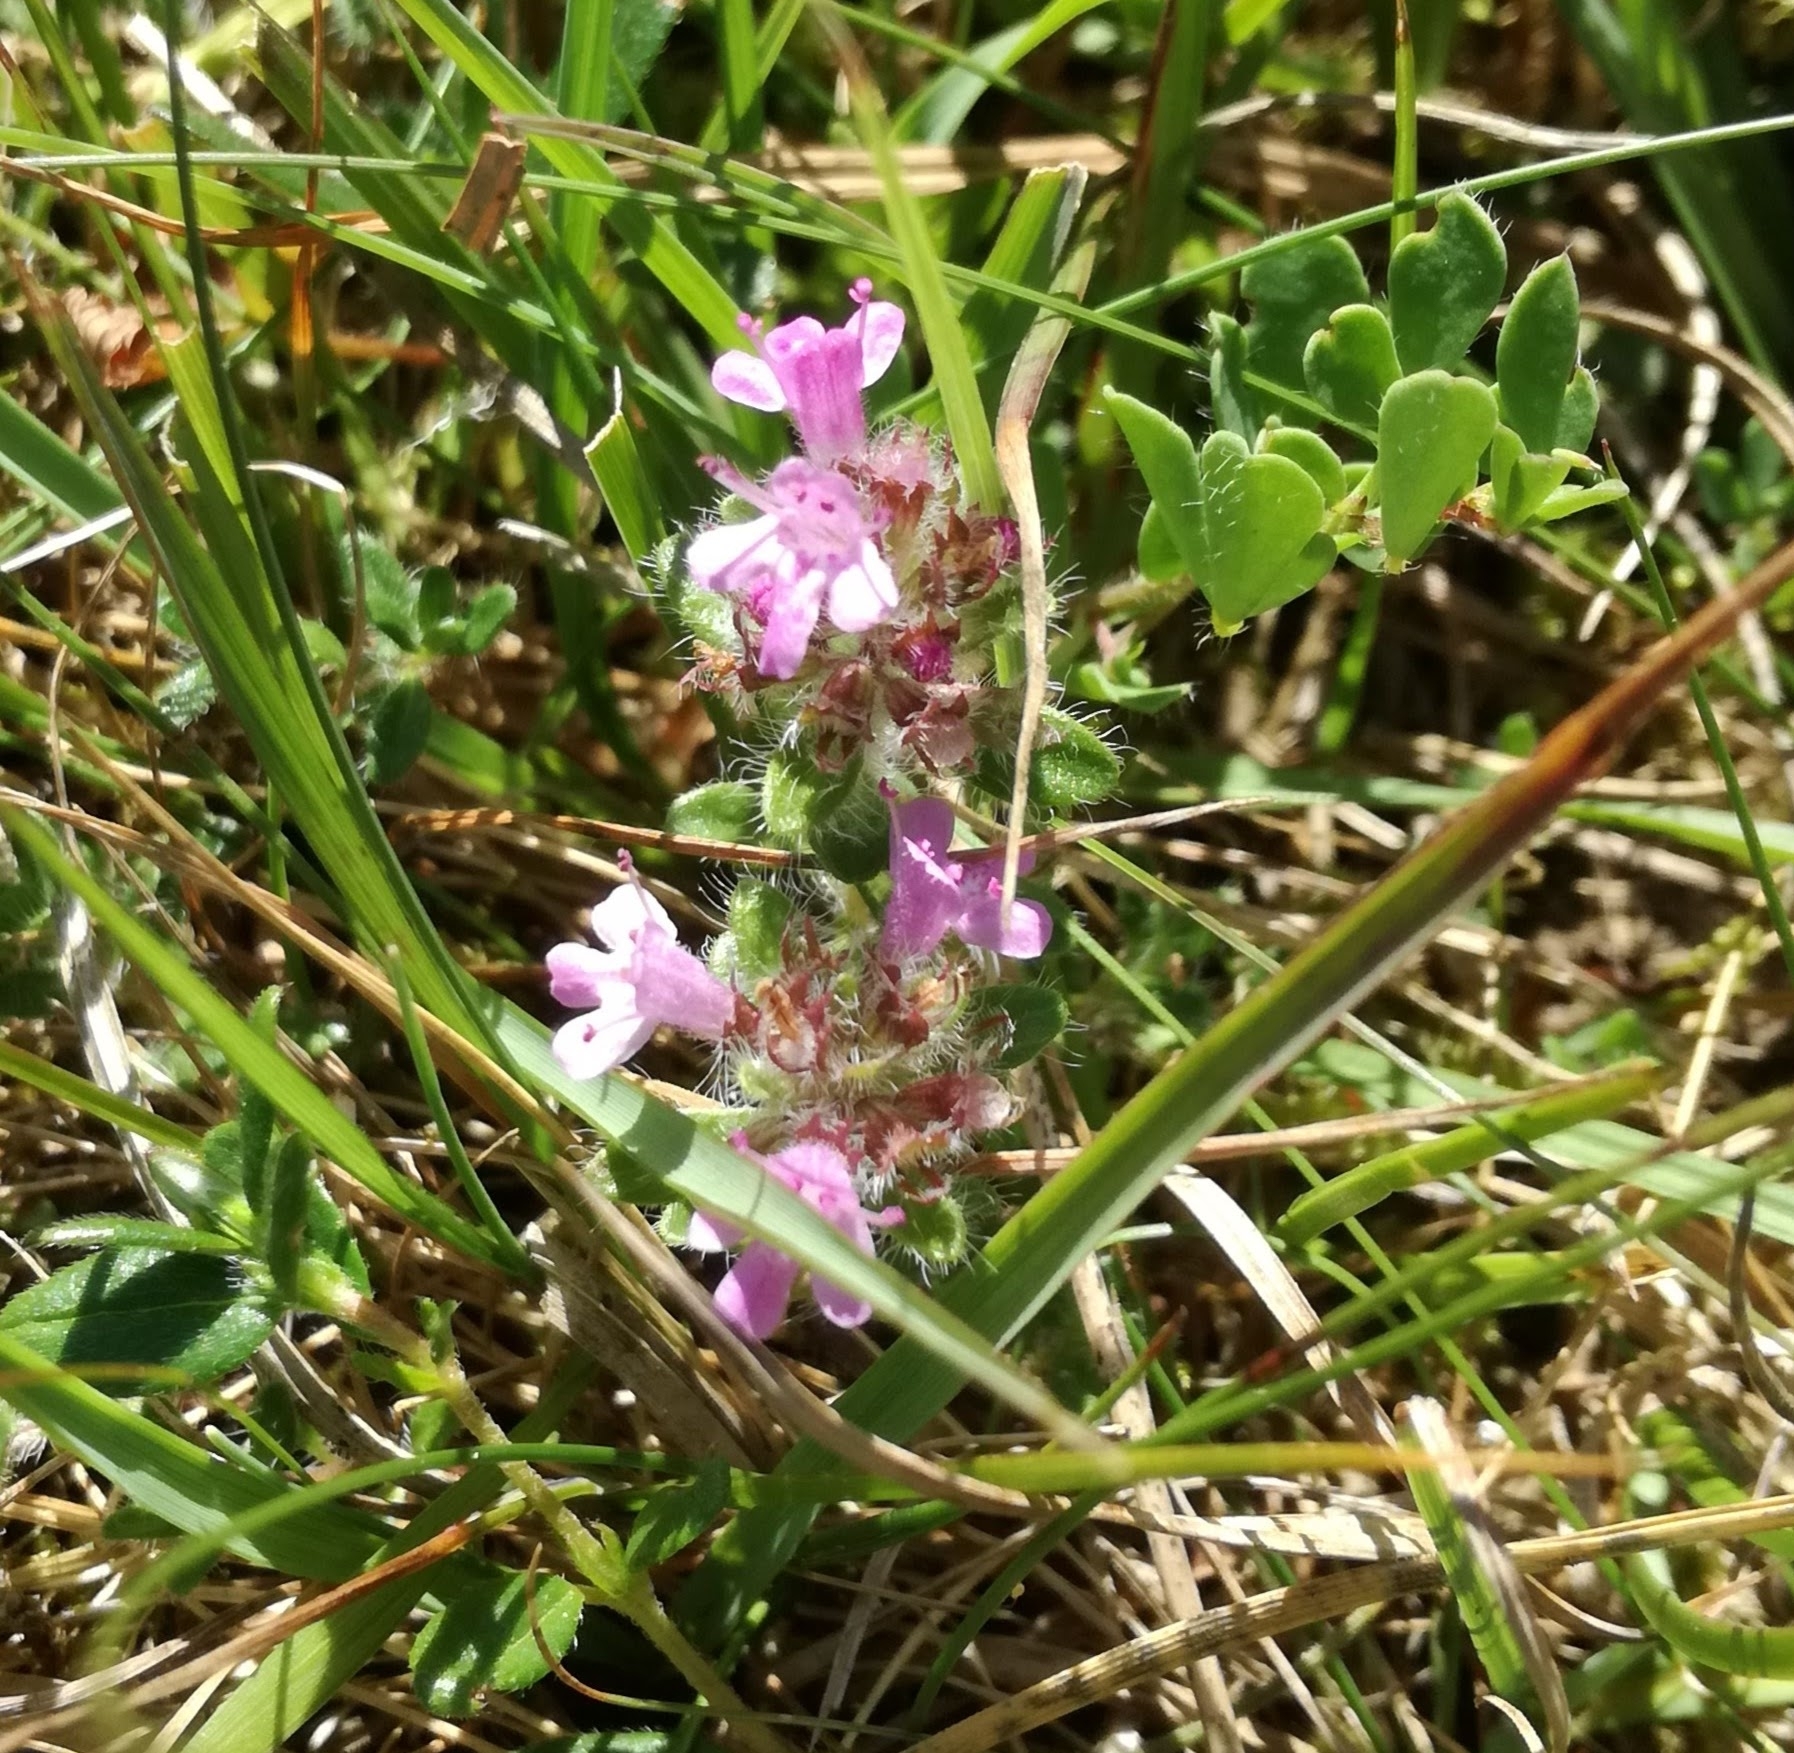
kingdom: Plantae
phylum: Tracheophyta
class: Magnoliopsida
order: Lamiales
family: Lamiaceae
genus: Thymus
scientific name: Thymus praecox
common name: Wild thyme
